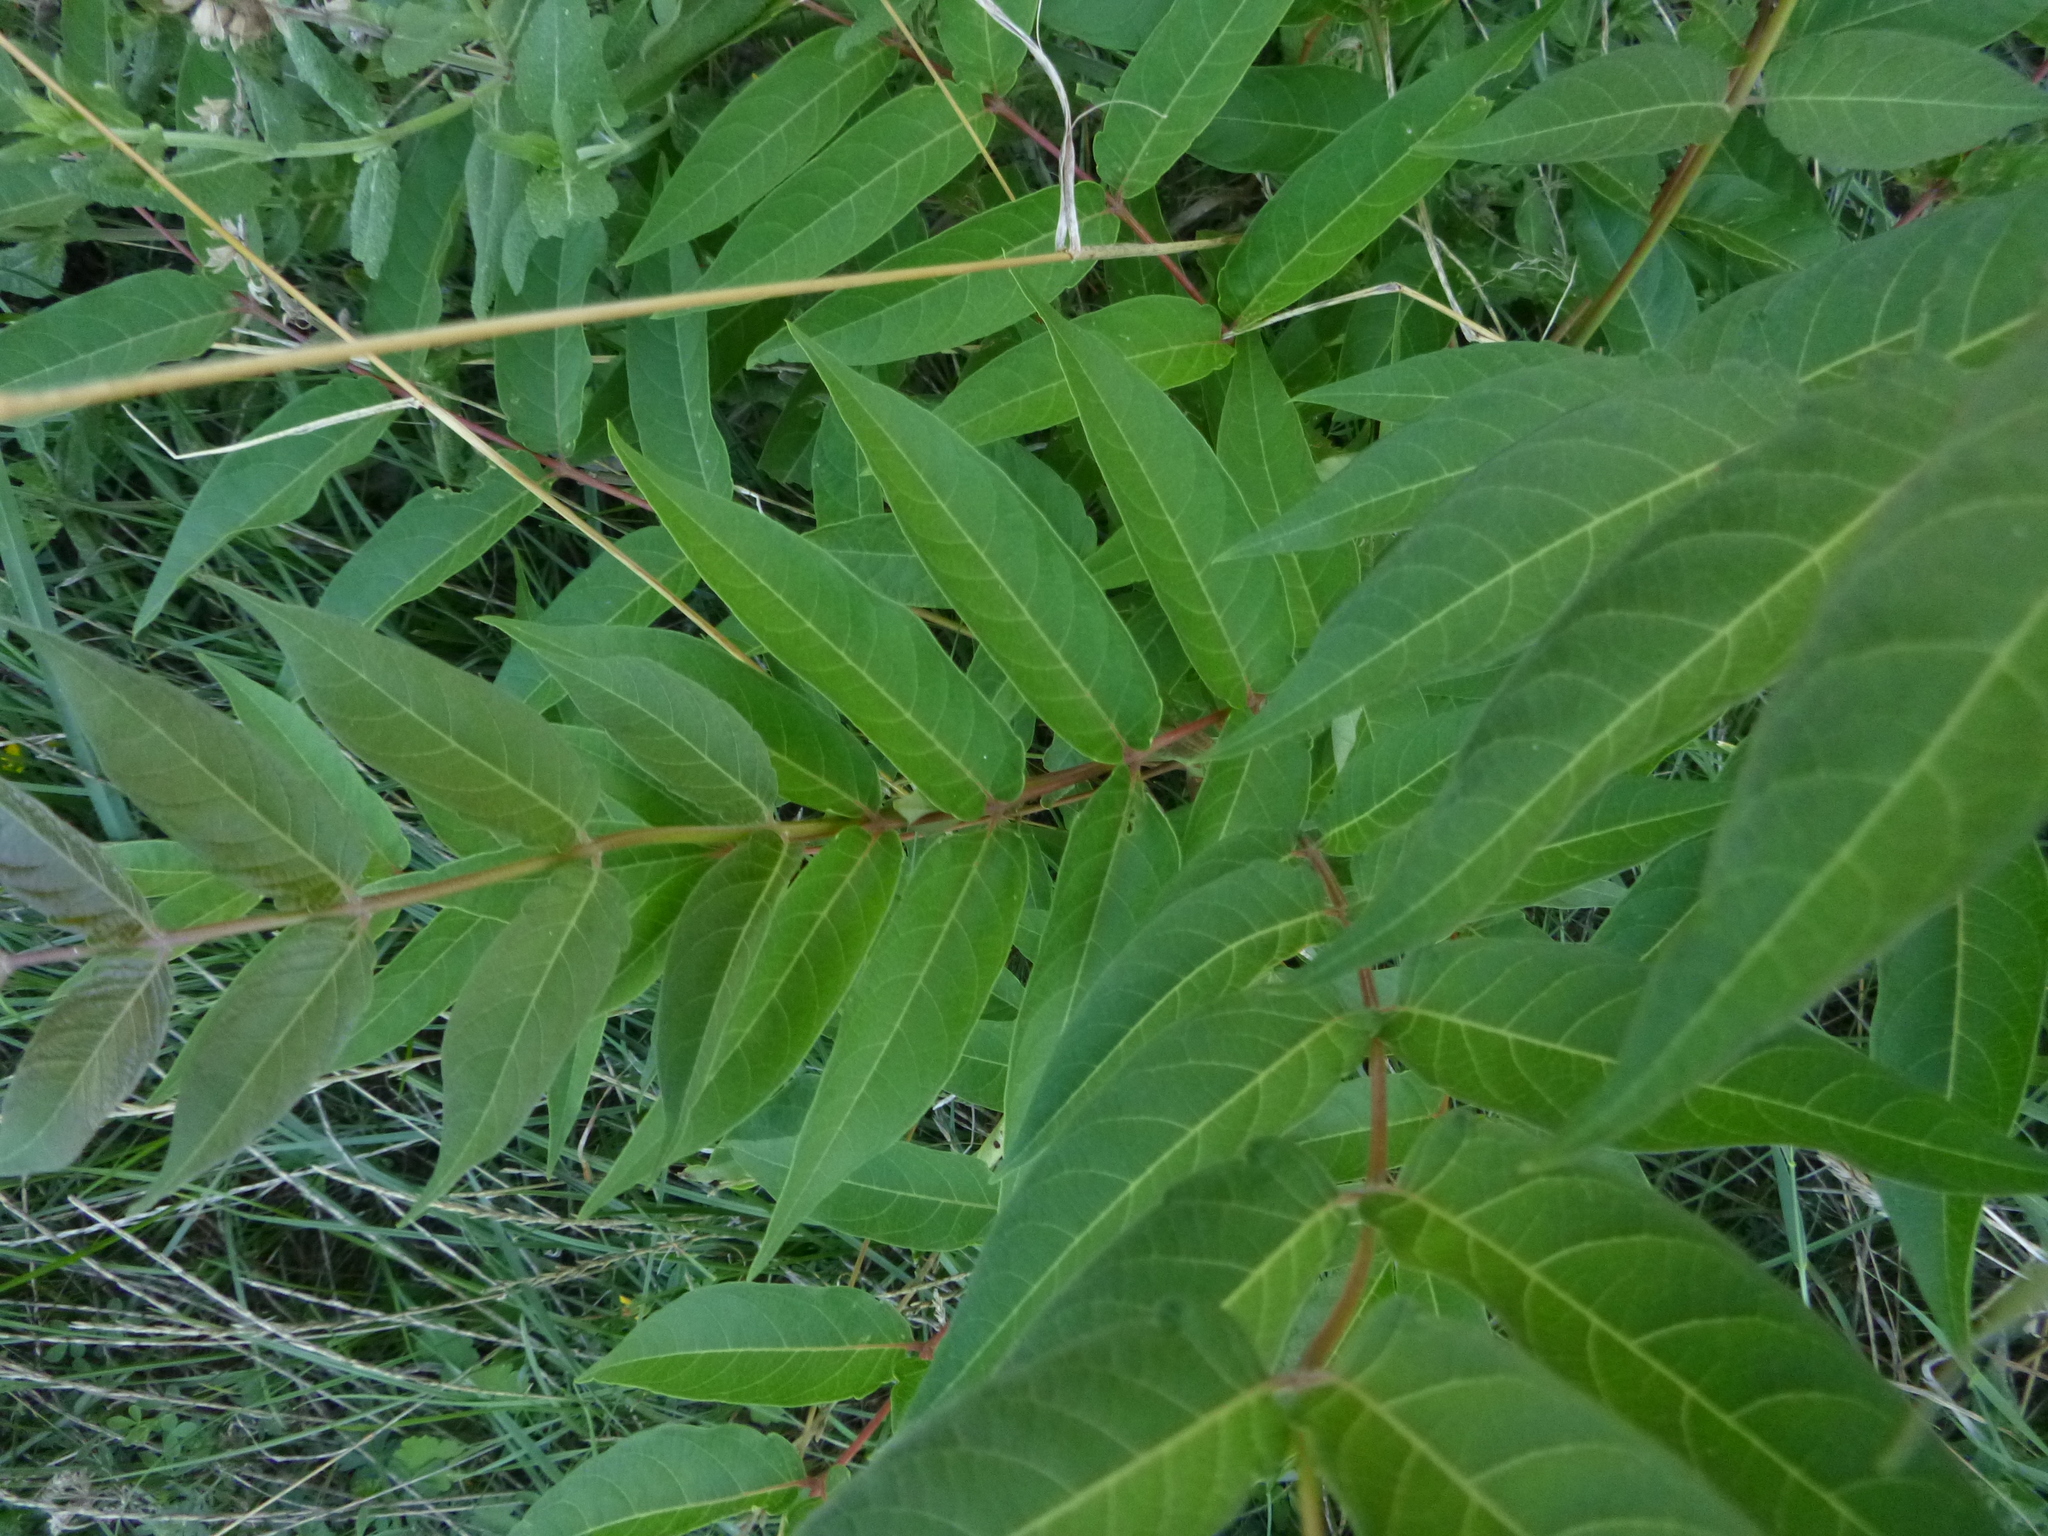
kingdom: Plantae
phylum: Tracheophyta
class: Magnoliopsida
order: Sapindales
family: Simaroubaceae
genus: Ailanthus
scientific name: Ailanthus altissima
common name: Tree-of-heaven
